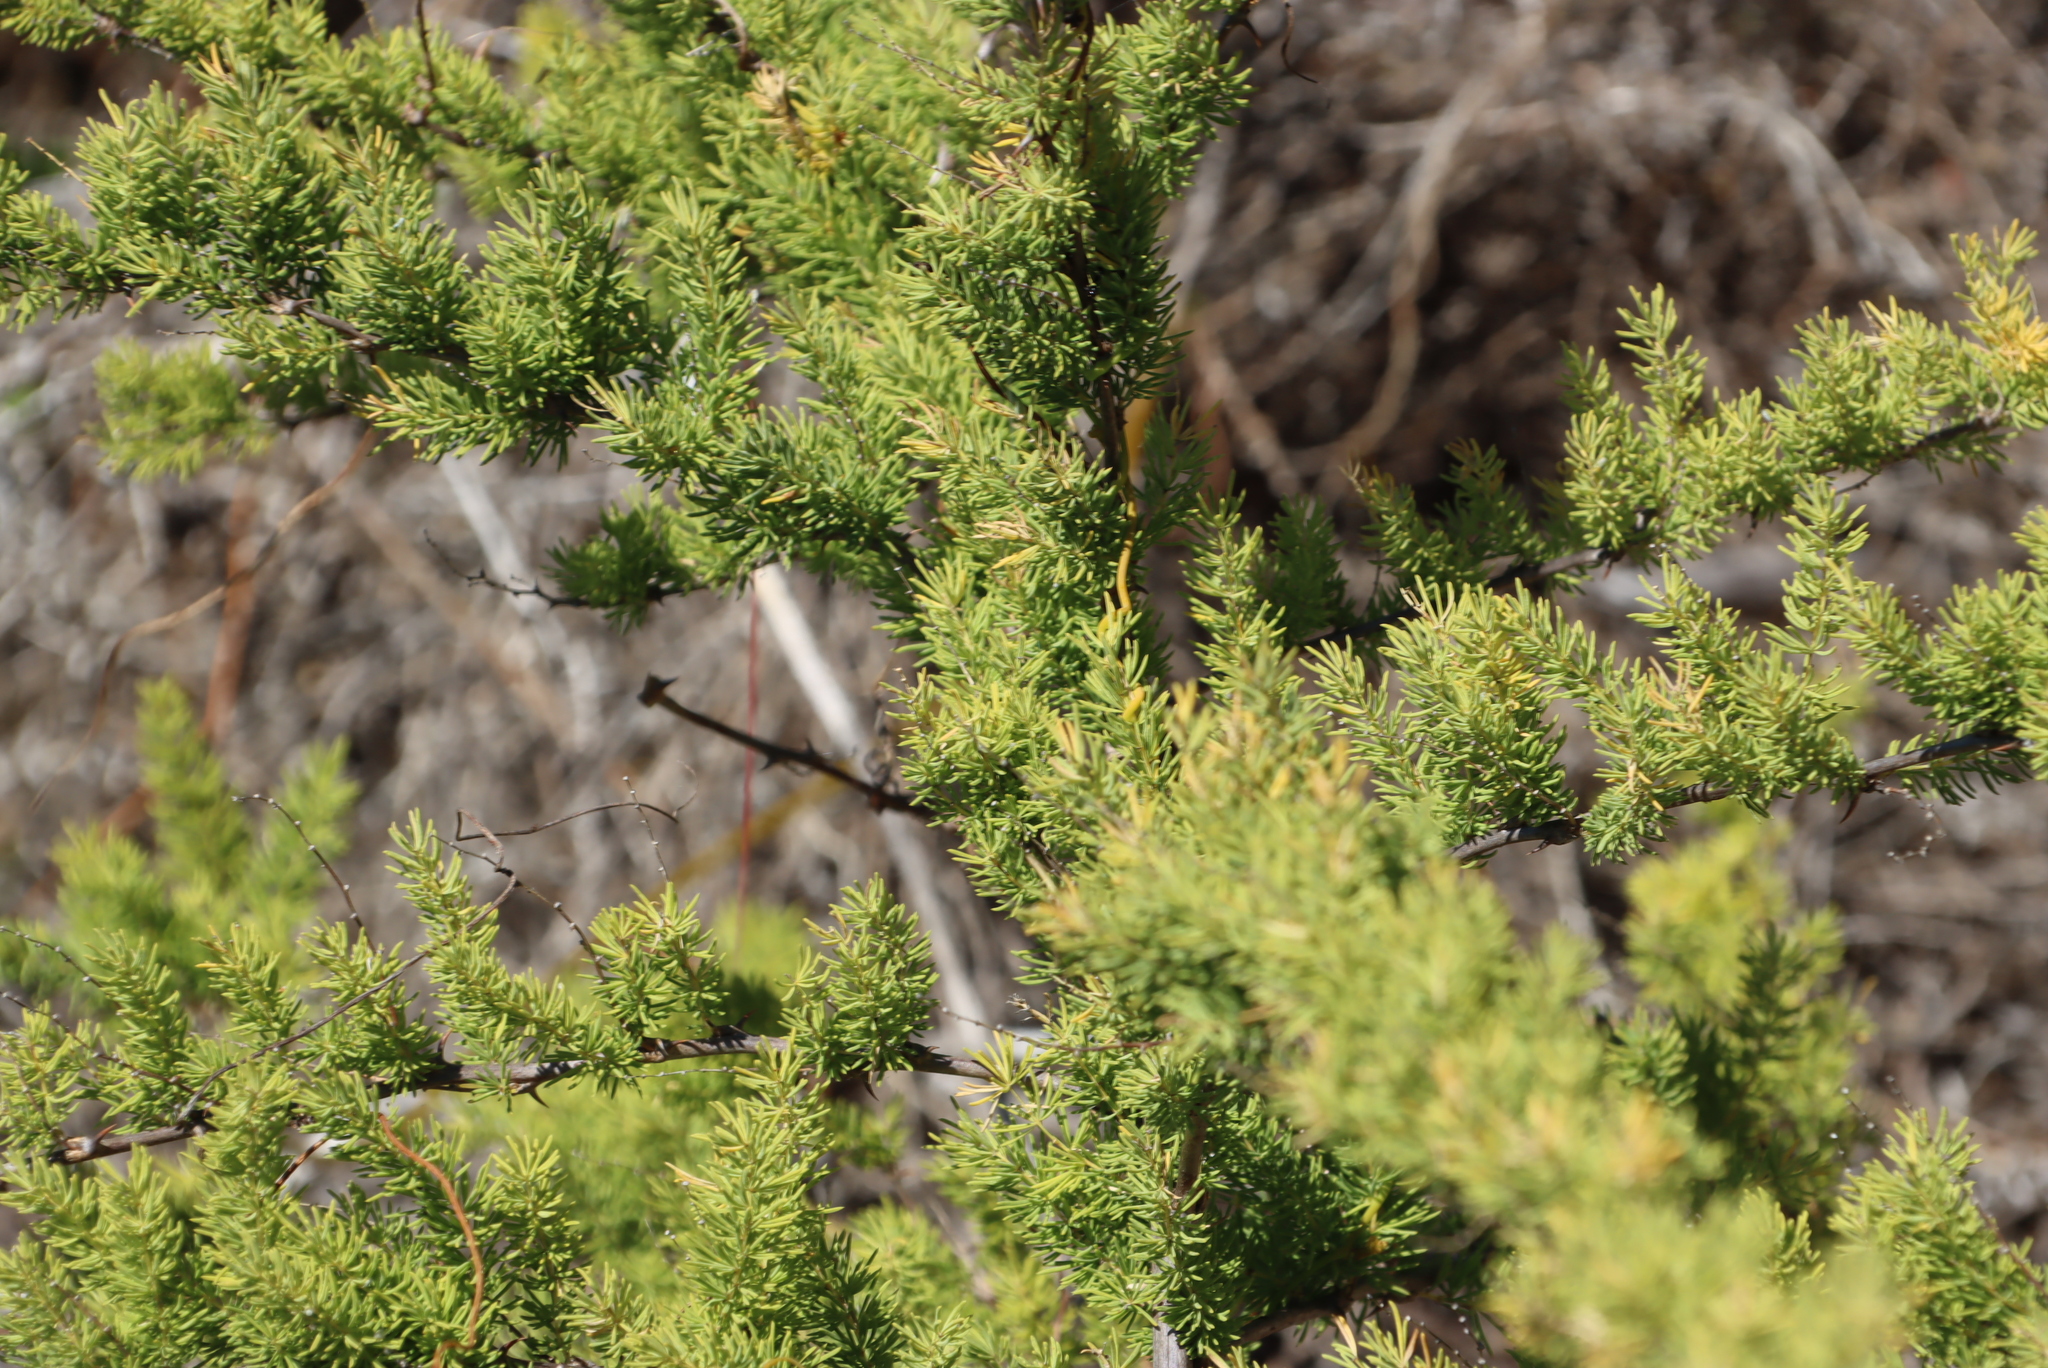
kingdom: Plantae
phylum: Tracheophyta
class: Liliopsida
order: Asparagales
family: Asparagaceae
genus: Asparagus
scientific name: Asparagus rubicundus
